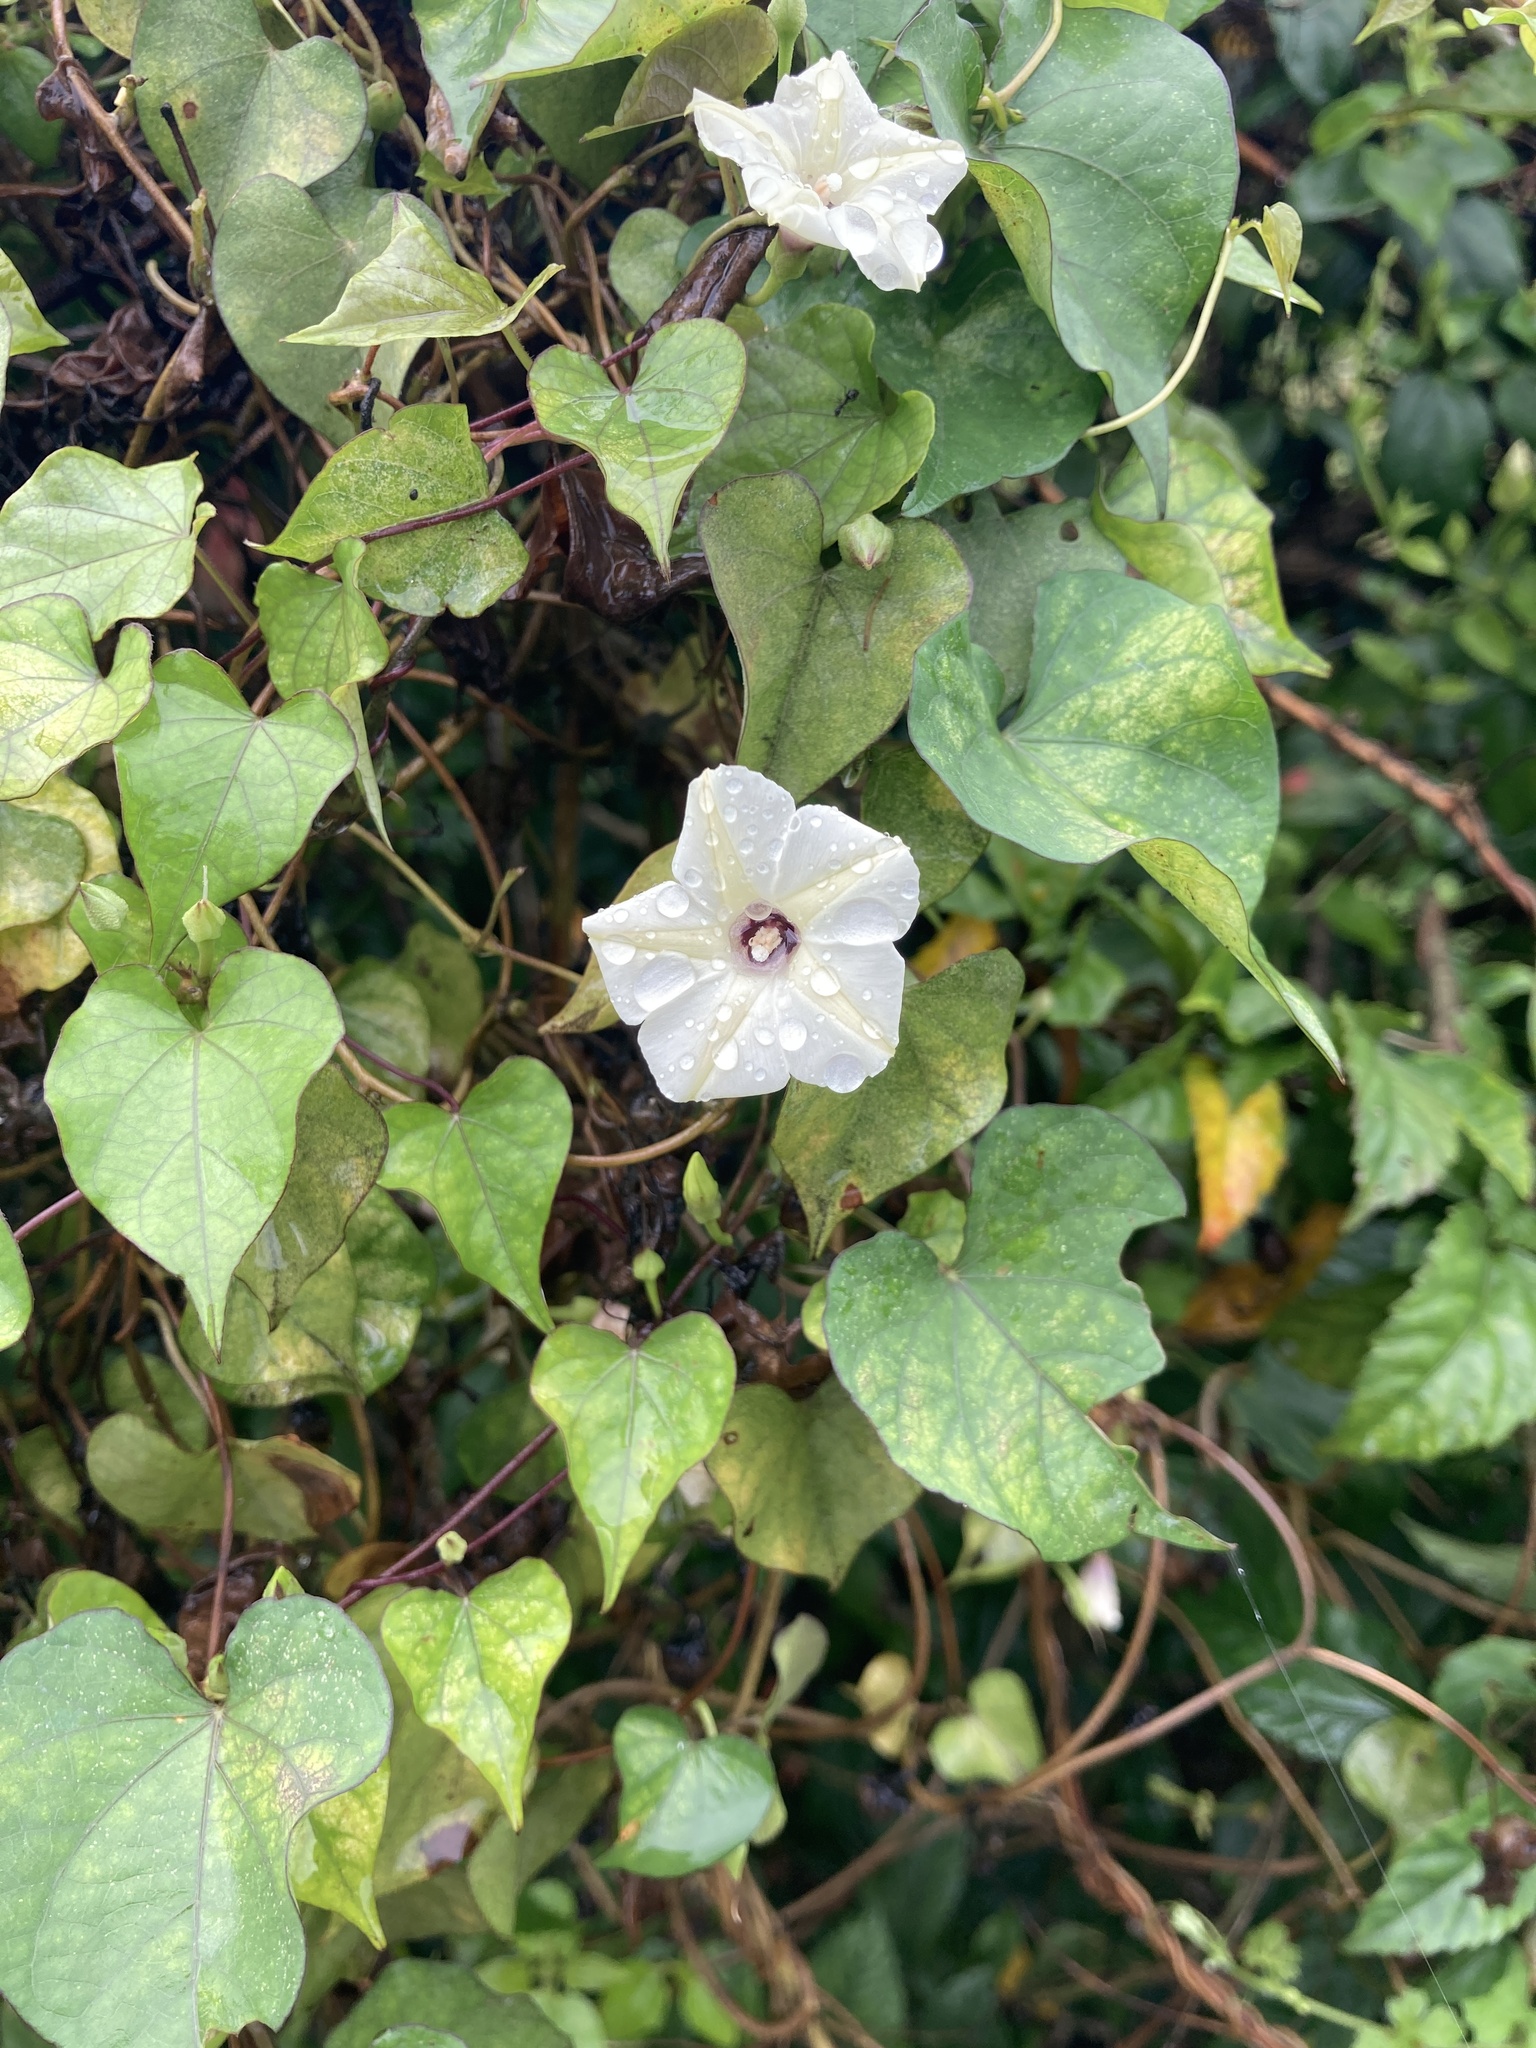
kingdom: Plantae
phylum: Tracheophyta
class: Magnoliopsida
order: Solanales
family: Convolvulaceae
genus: Ipomoea
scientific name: Ipomoea obscura
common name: Obscure morning-glory
